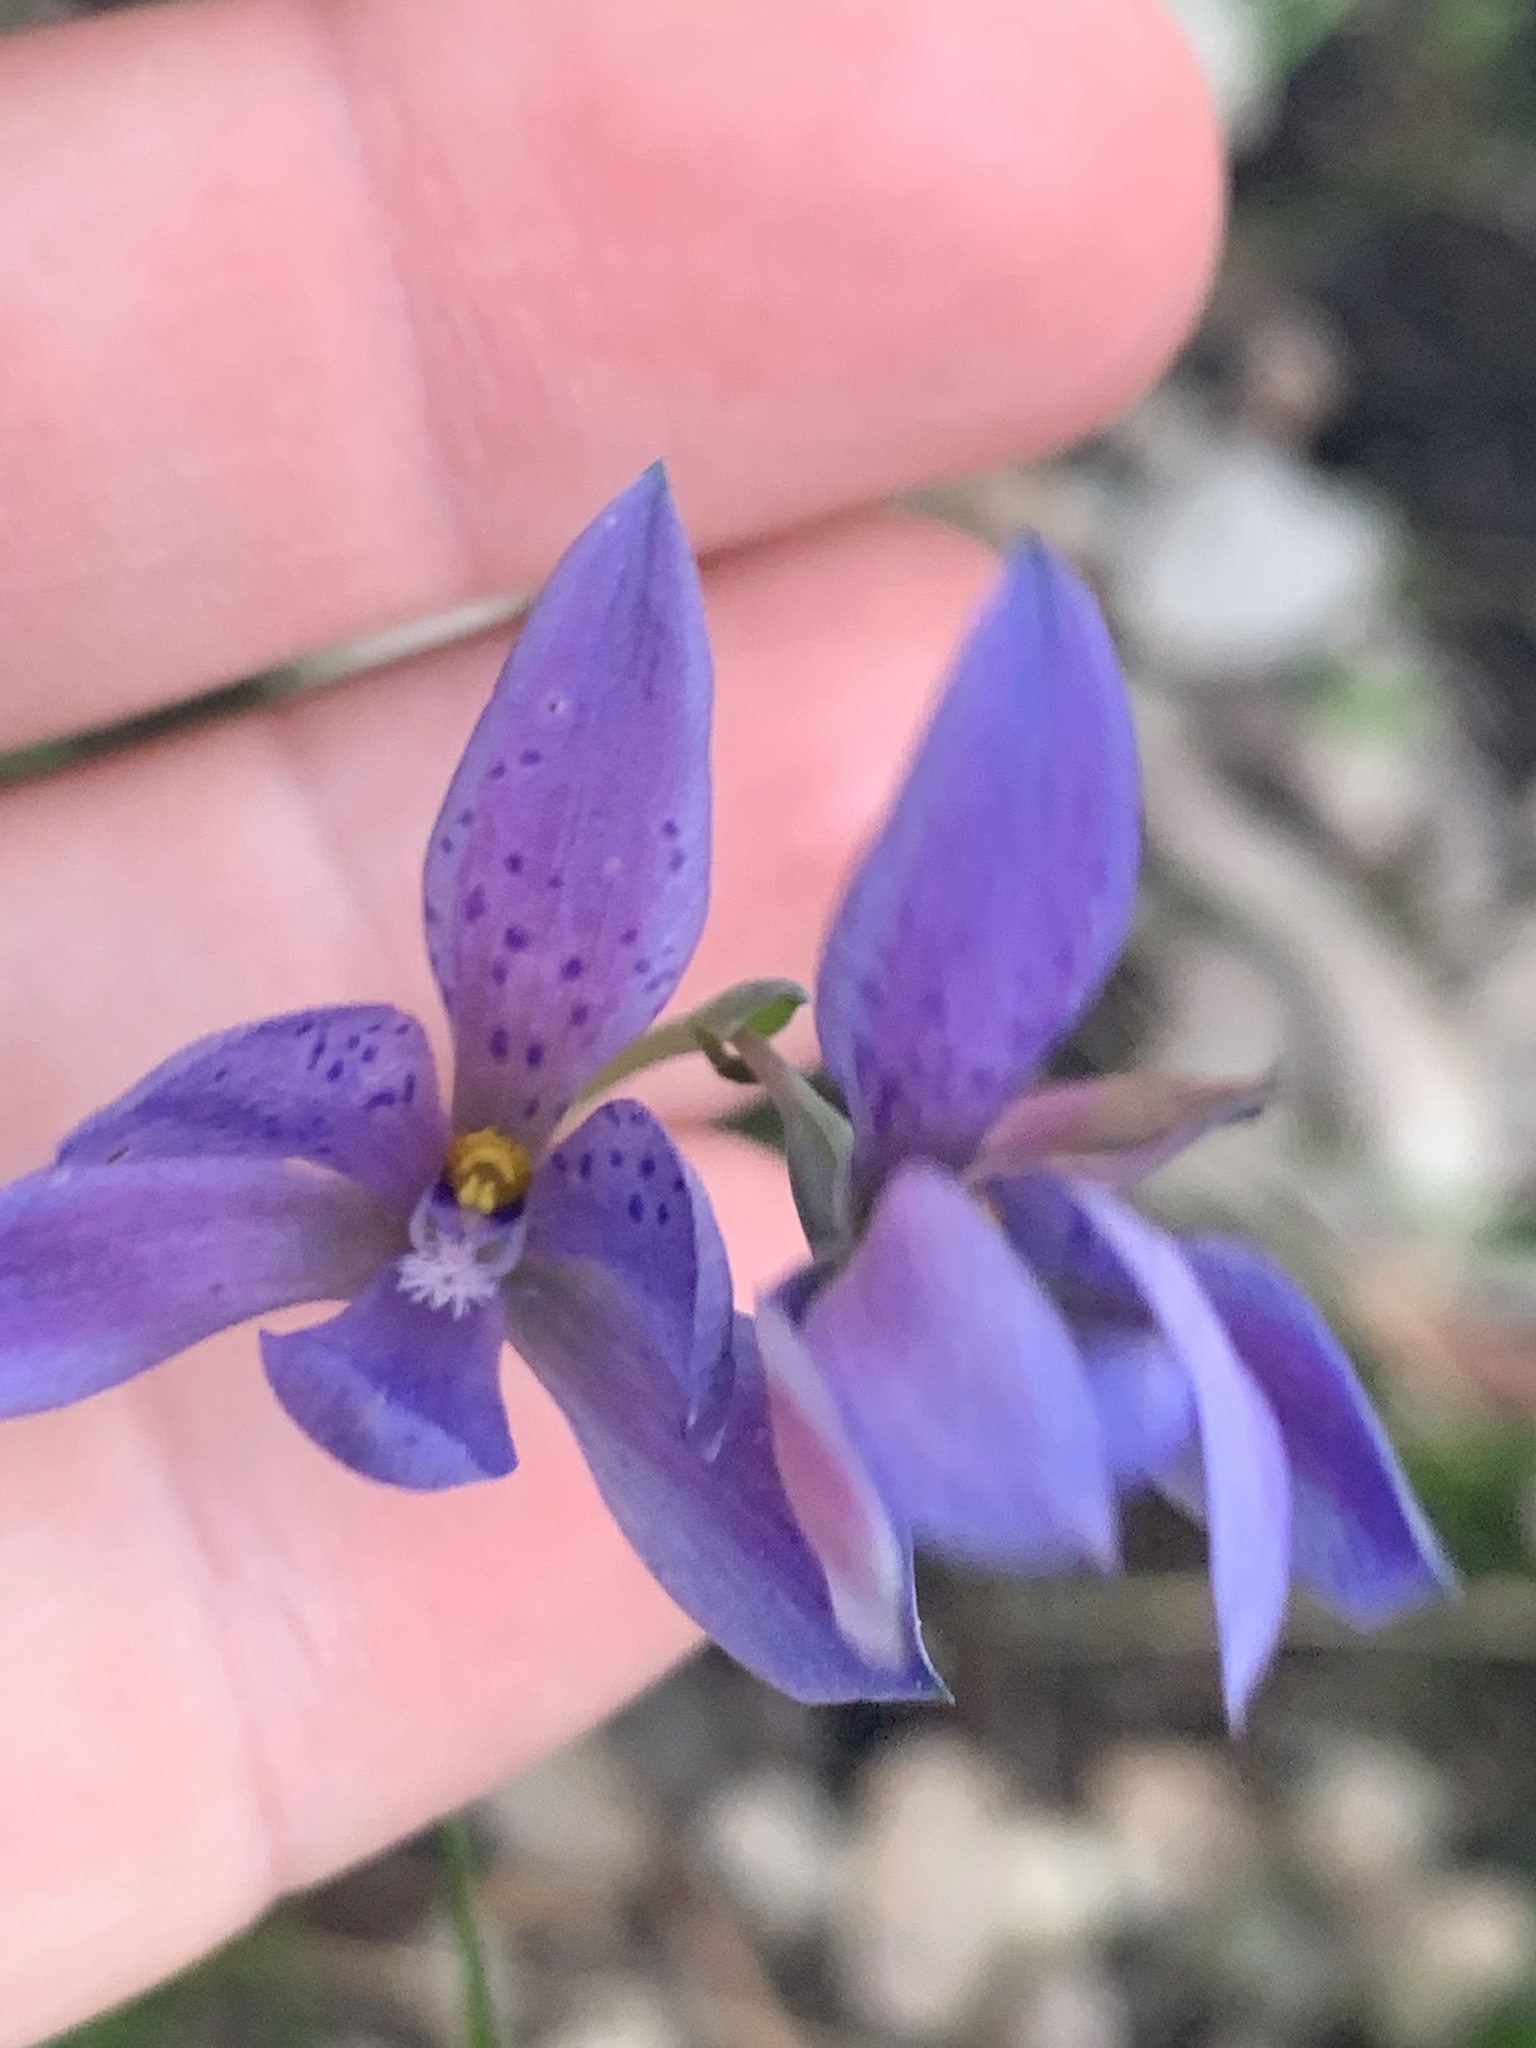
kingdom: Plantae
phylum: Tracheophyta
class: Liliopsida
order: Asparagales
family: Orchidaceae
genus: Thelymitra
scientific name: Thelymitra ixioides
